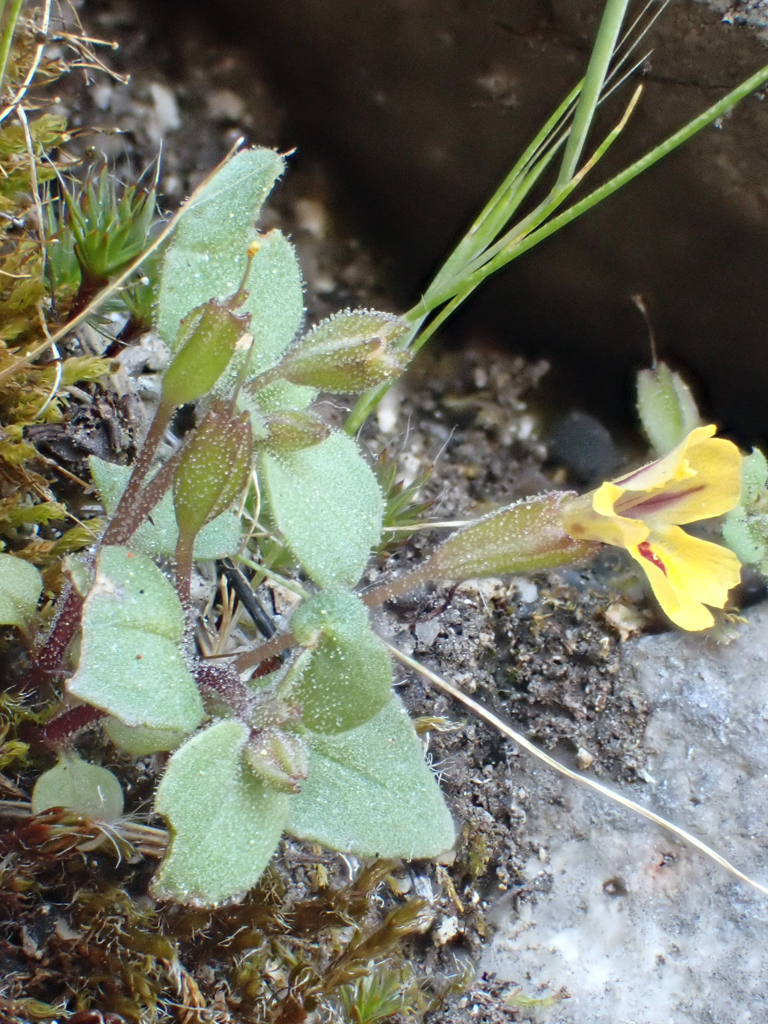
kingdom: Plantae
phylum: Tracheophyta
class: Magnoliopsida
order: Lamiales
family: Phrymaceae
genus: Erythranthe
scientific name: Erythranthe alsinoides
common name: Chickweed monkeyflower
